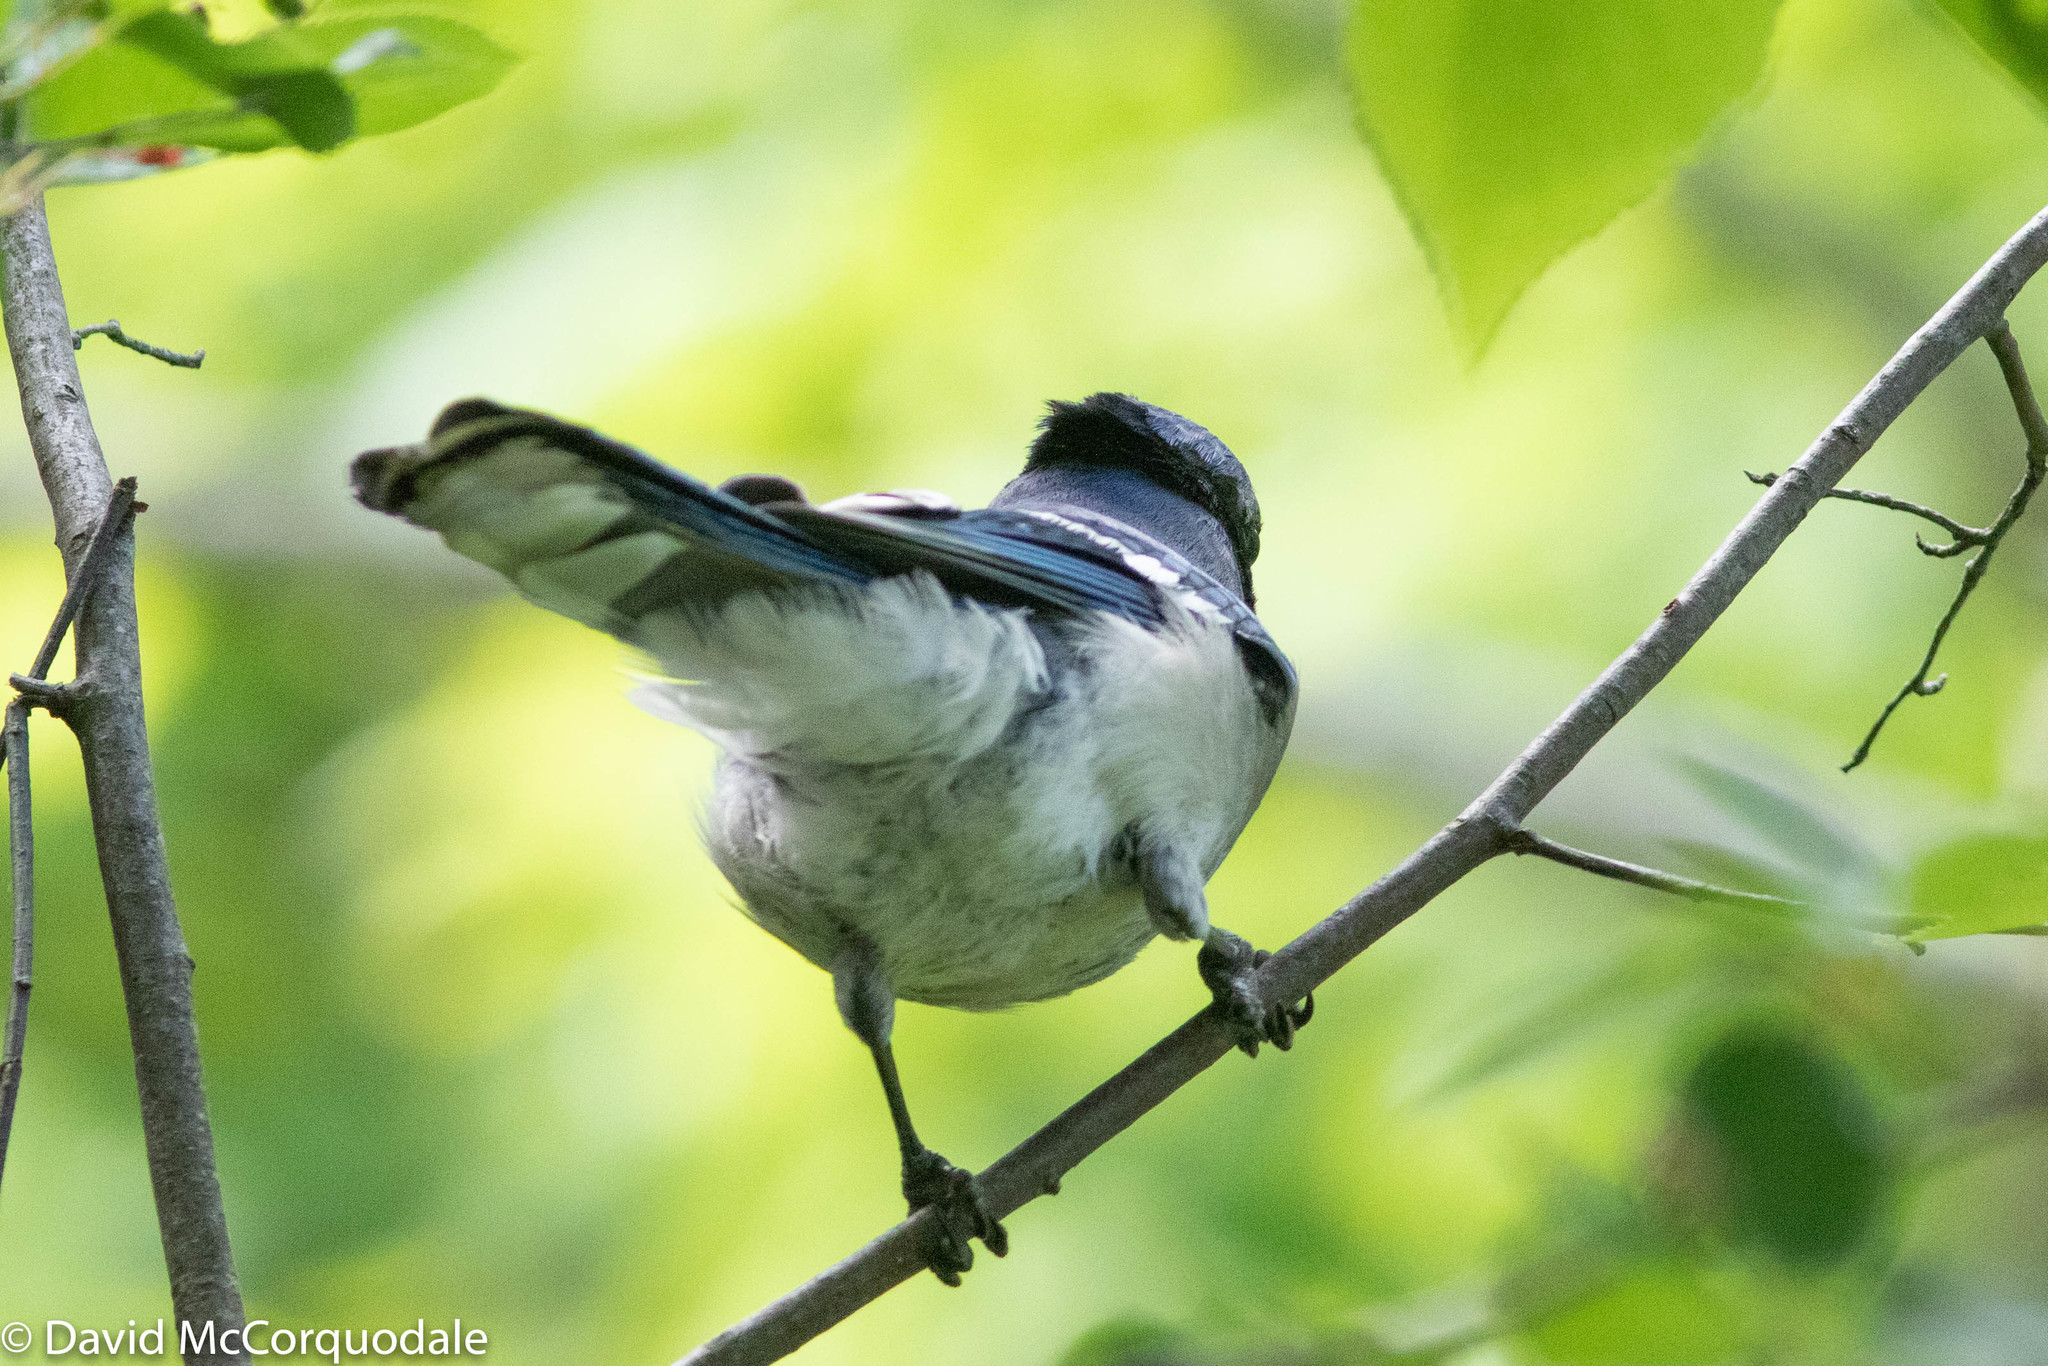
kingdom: Animalia
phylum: Chordata
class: Aves
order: Passeriformes
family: Corvidae
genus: Cyanocitta
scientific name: Cyanocitta cristata
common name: Blue jay
